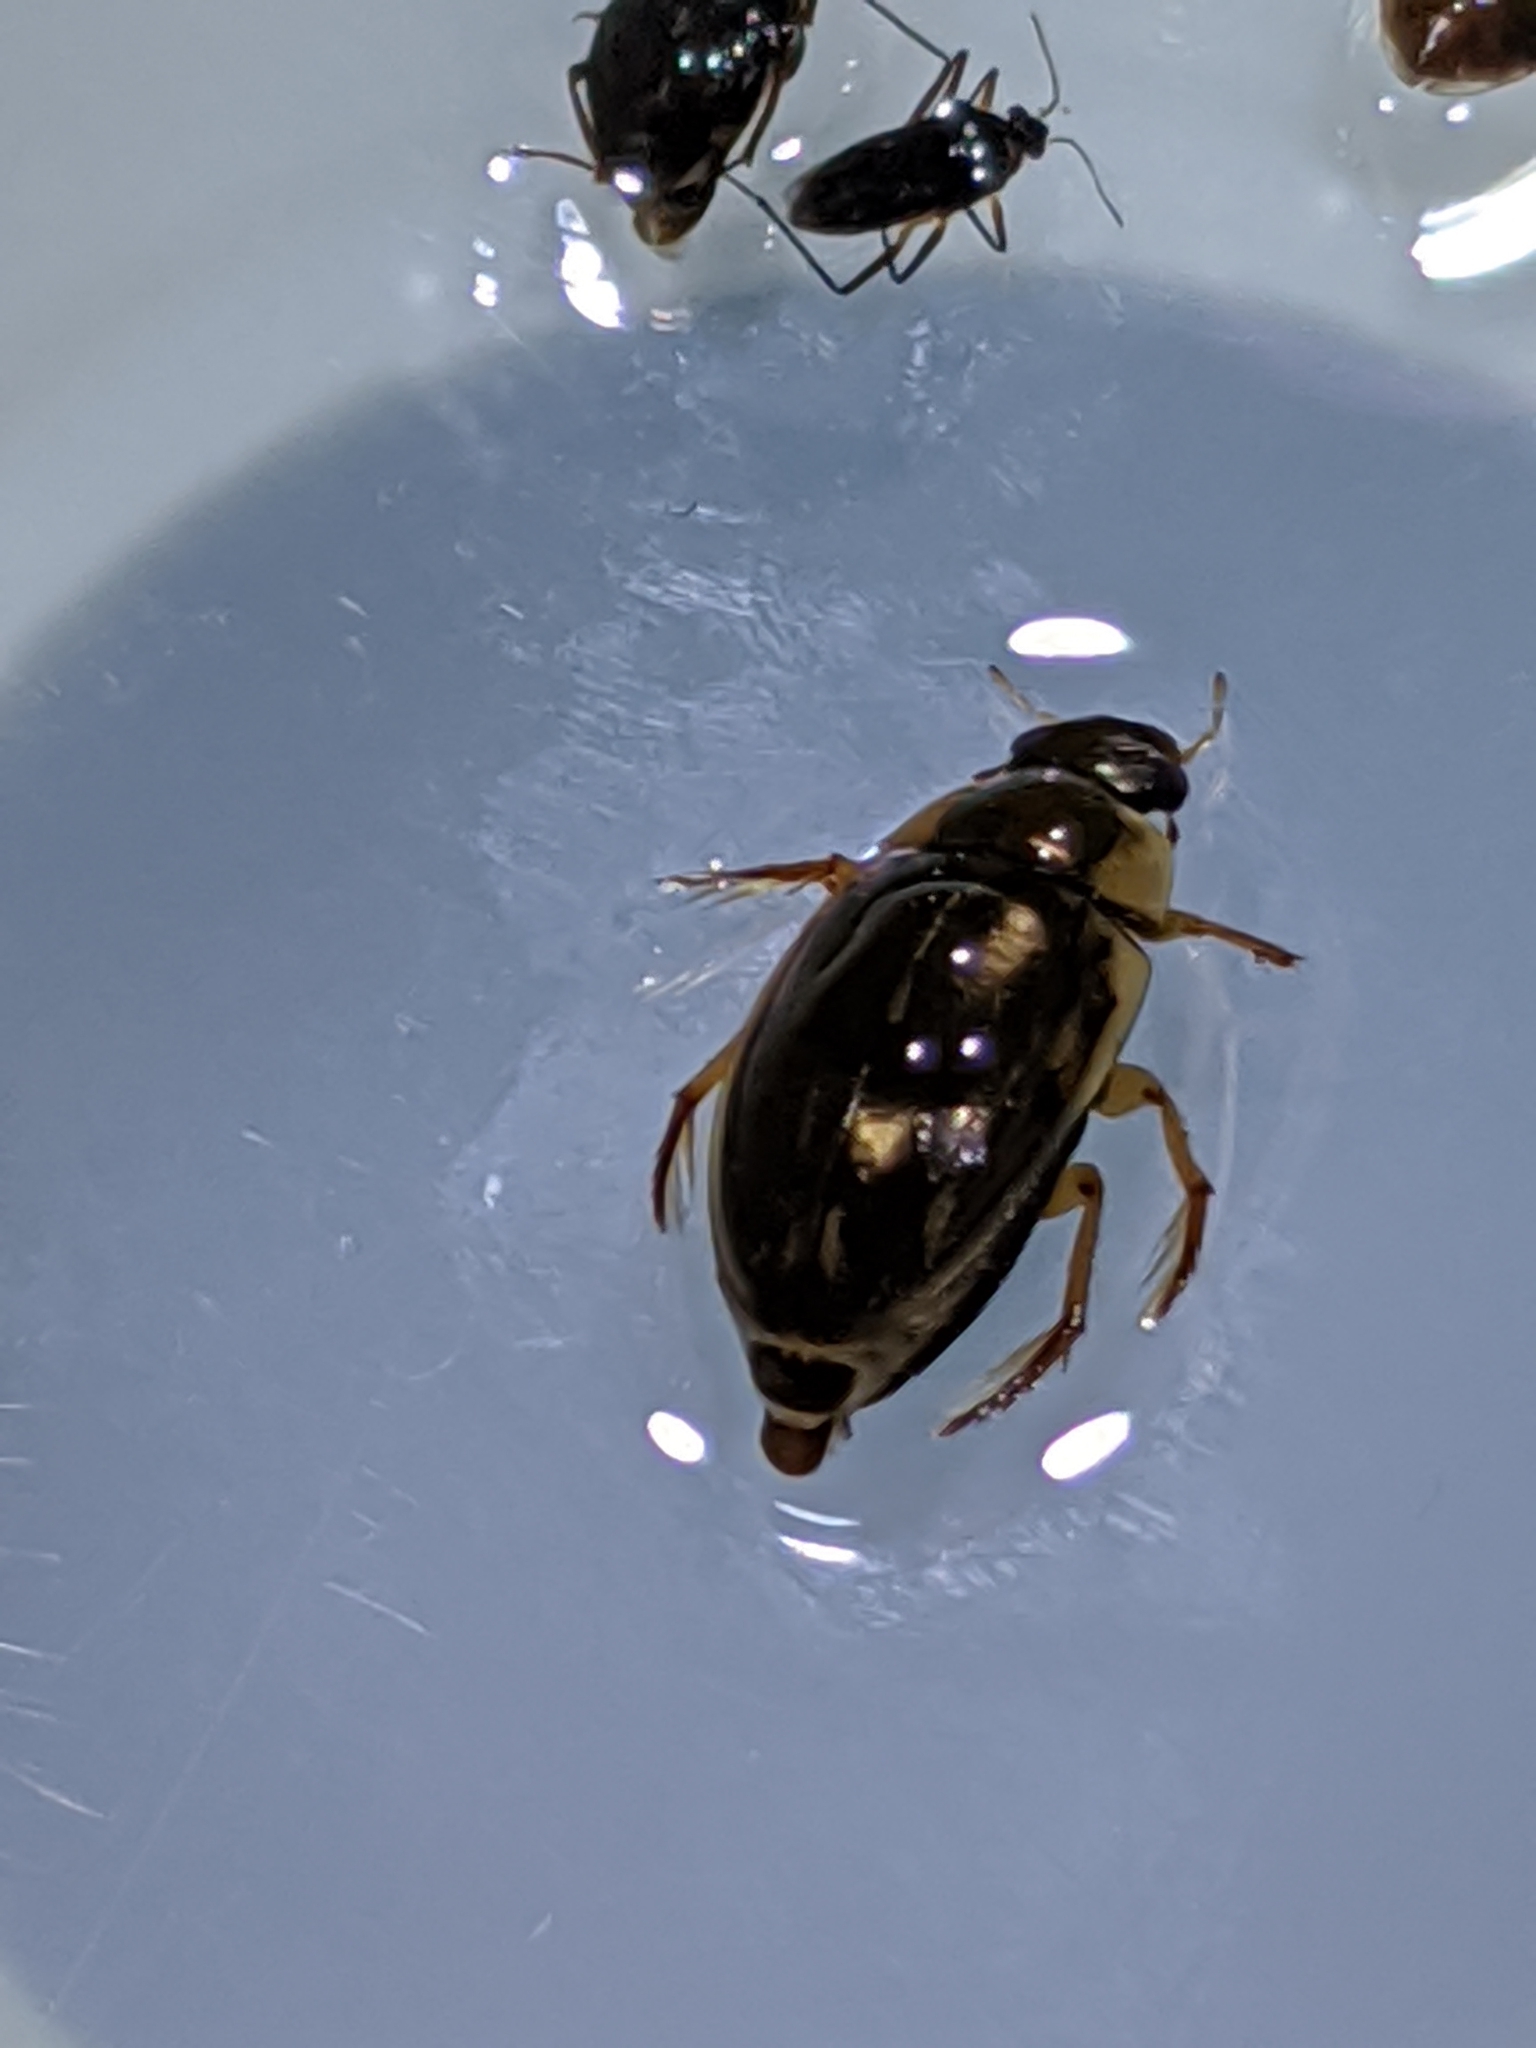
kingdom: Animalia
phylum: Arthropoda
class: Insecta
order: Coleoptera
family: Hydrophilidae
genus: Tropisternus
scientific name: Tropisternus lateralis
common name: Lateral-banded water scavenger beetle
